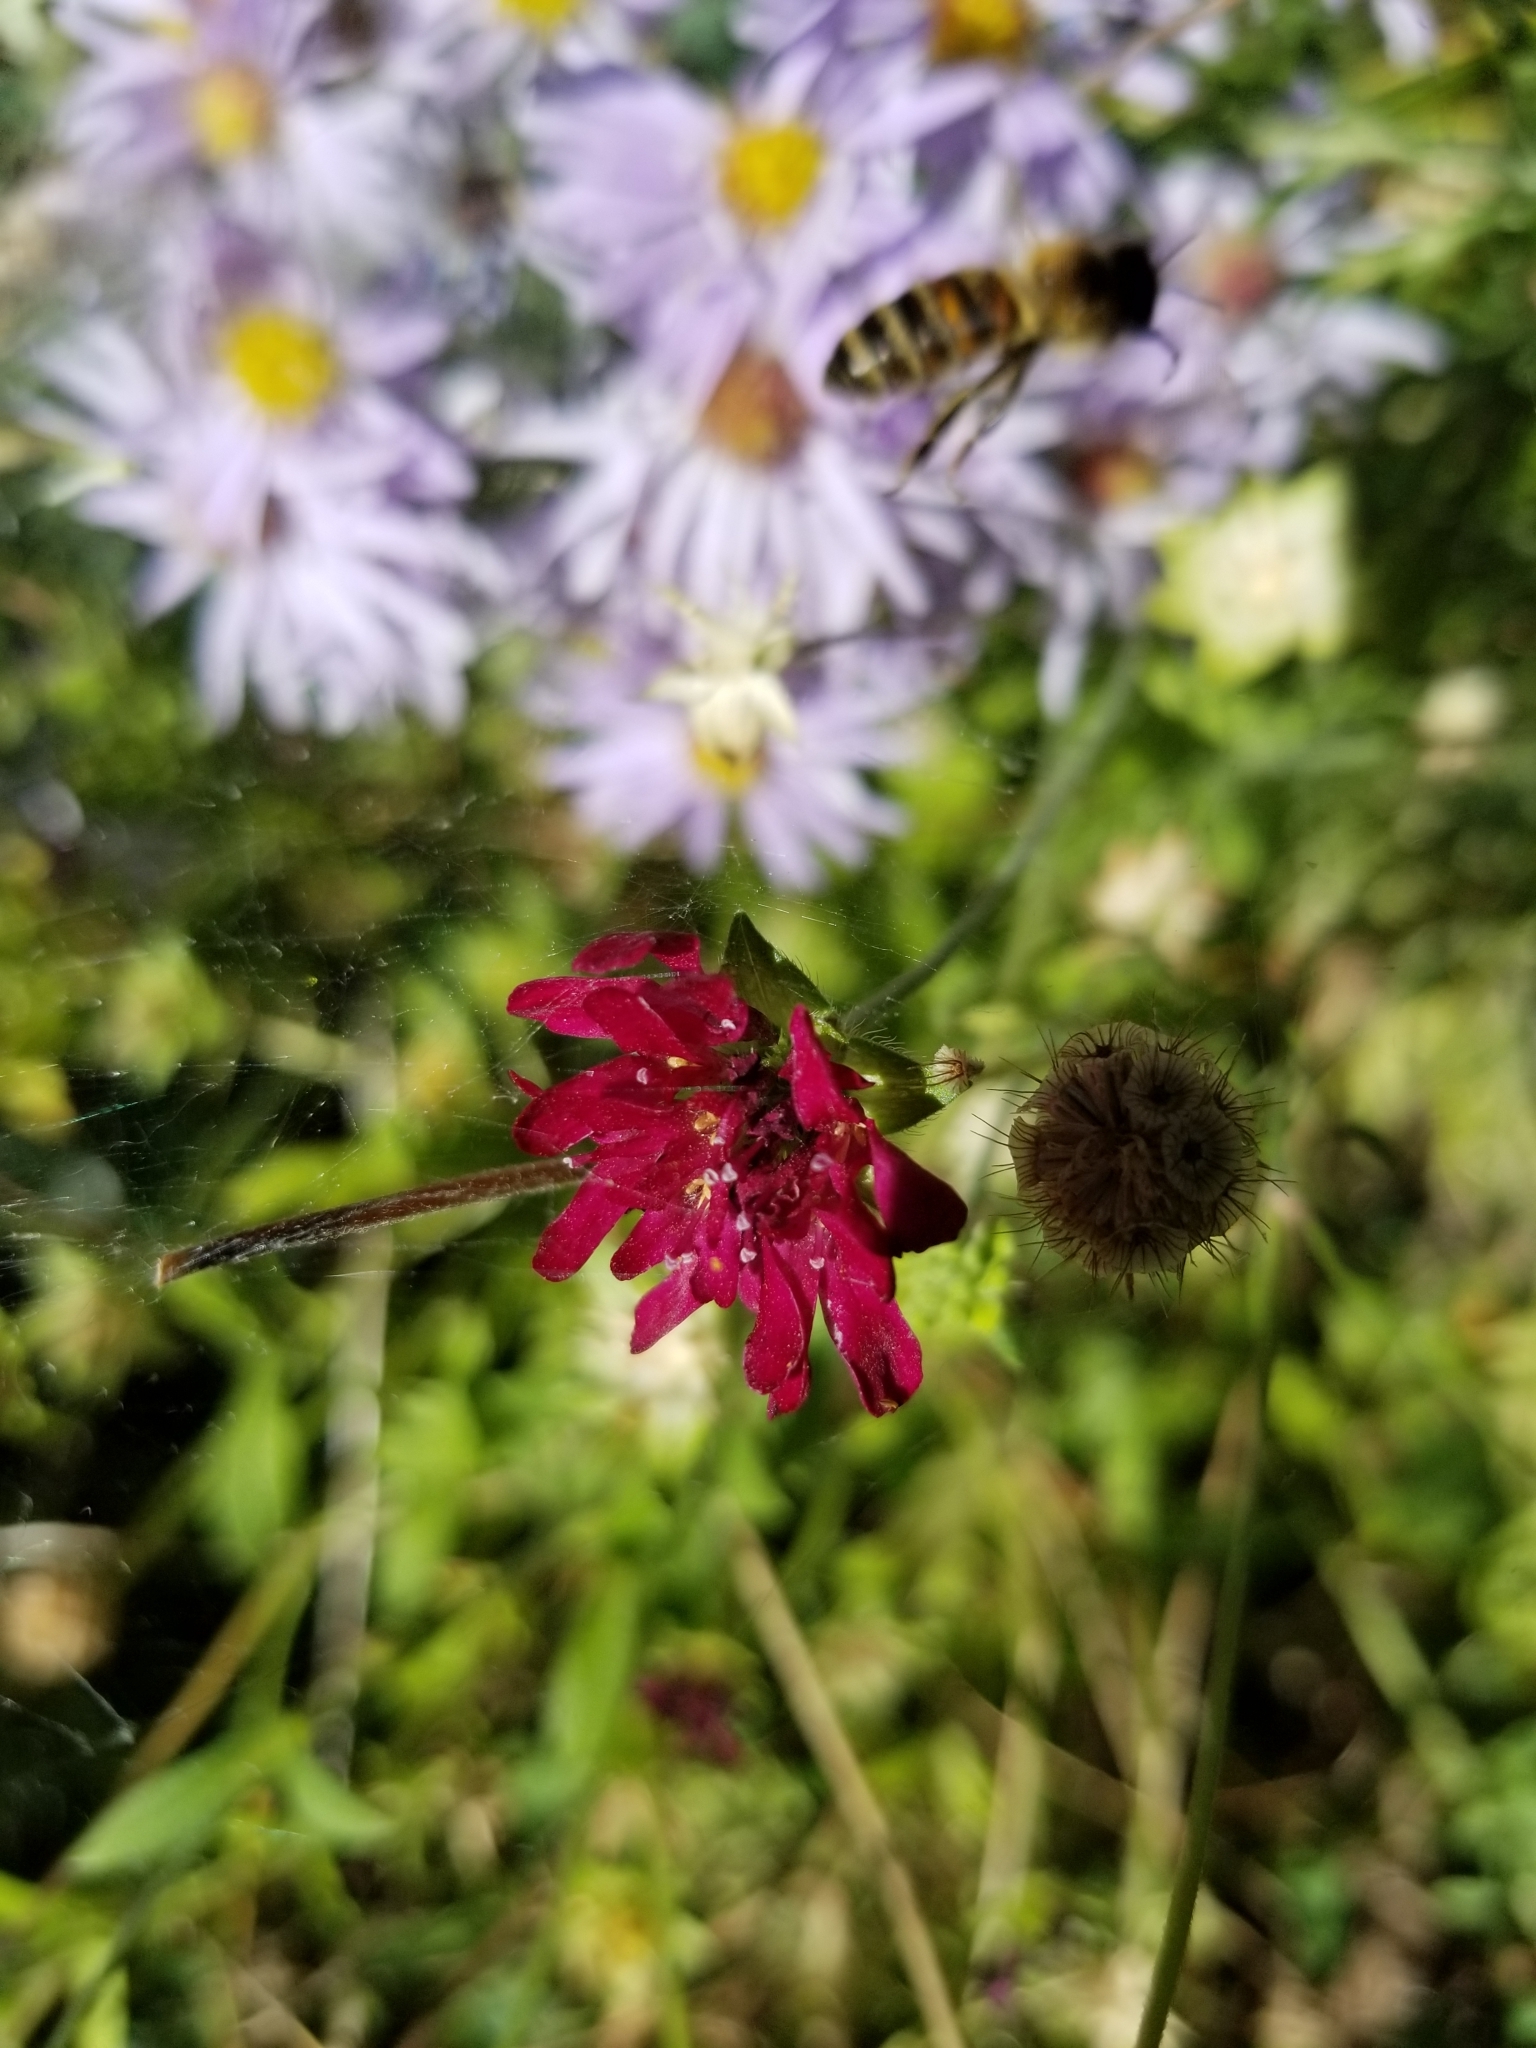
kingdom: Animalia
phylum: Arthropoda
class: Insecta
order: Hymenoptera
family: Apidae
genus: Apis
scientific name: Apis mellifera
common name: Honey bee
